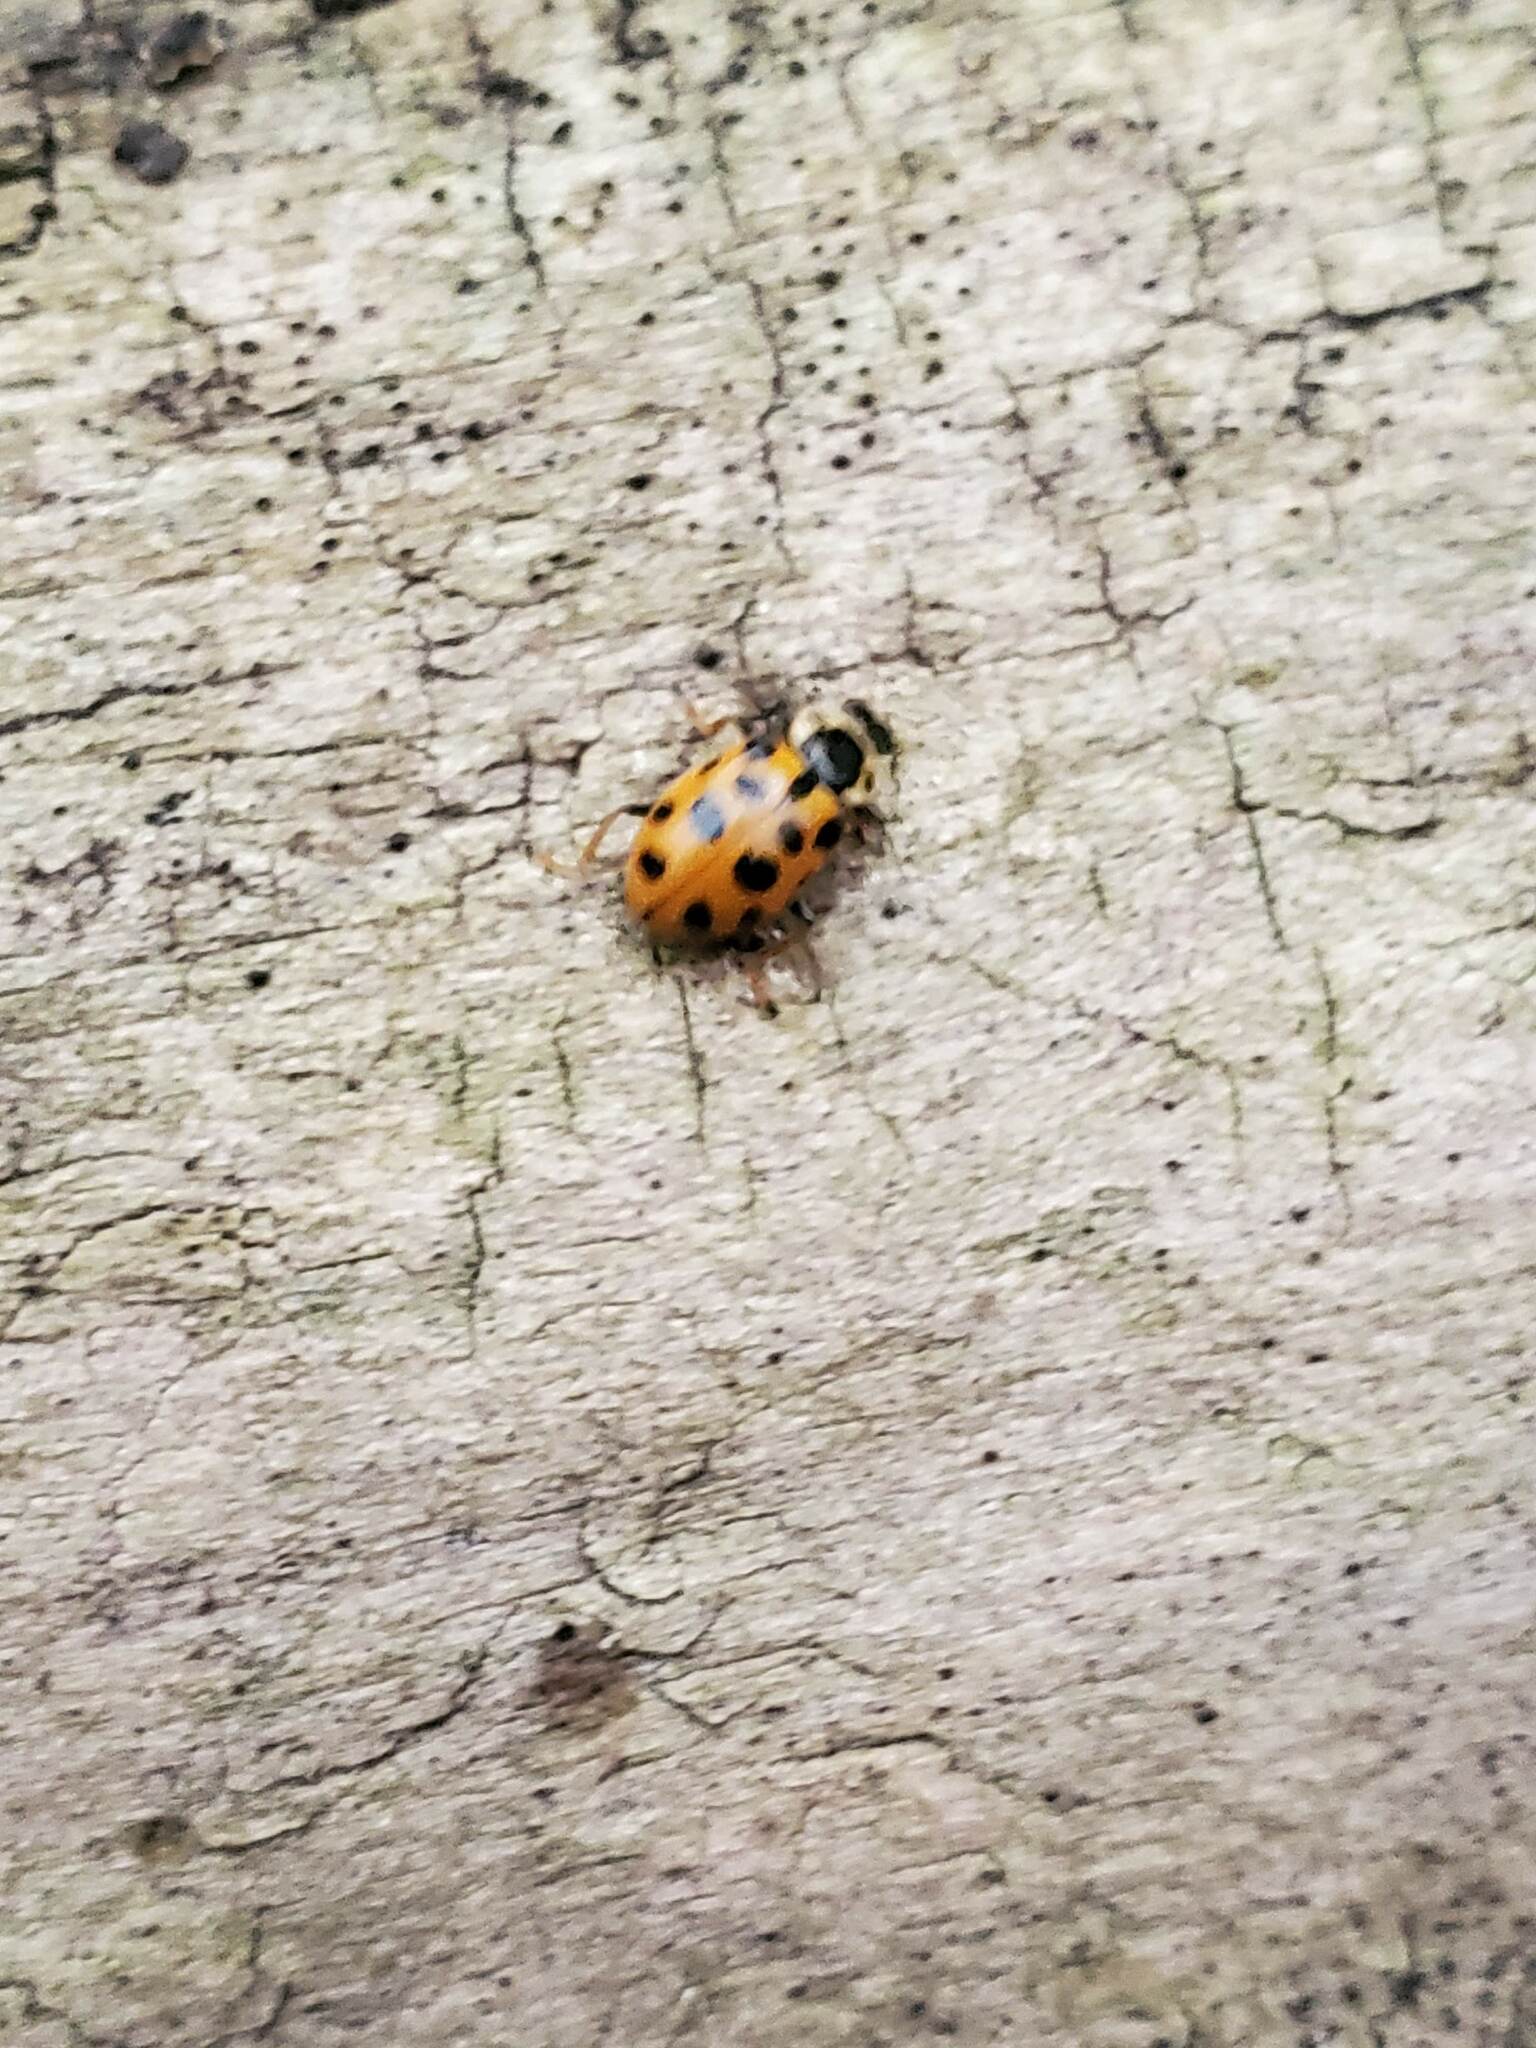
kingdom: Animalia
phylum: Arthropoda
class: Insecta
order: Coleoptera
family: Coccinellidae
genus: Hippodamia
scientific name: Hippodamia tredecimpunctata
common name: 13-spot ladybird
